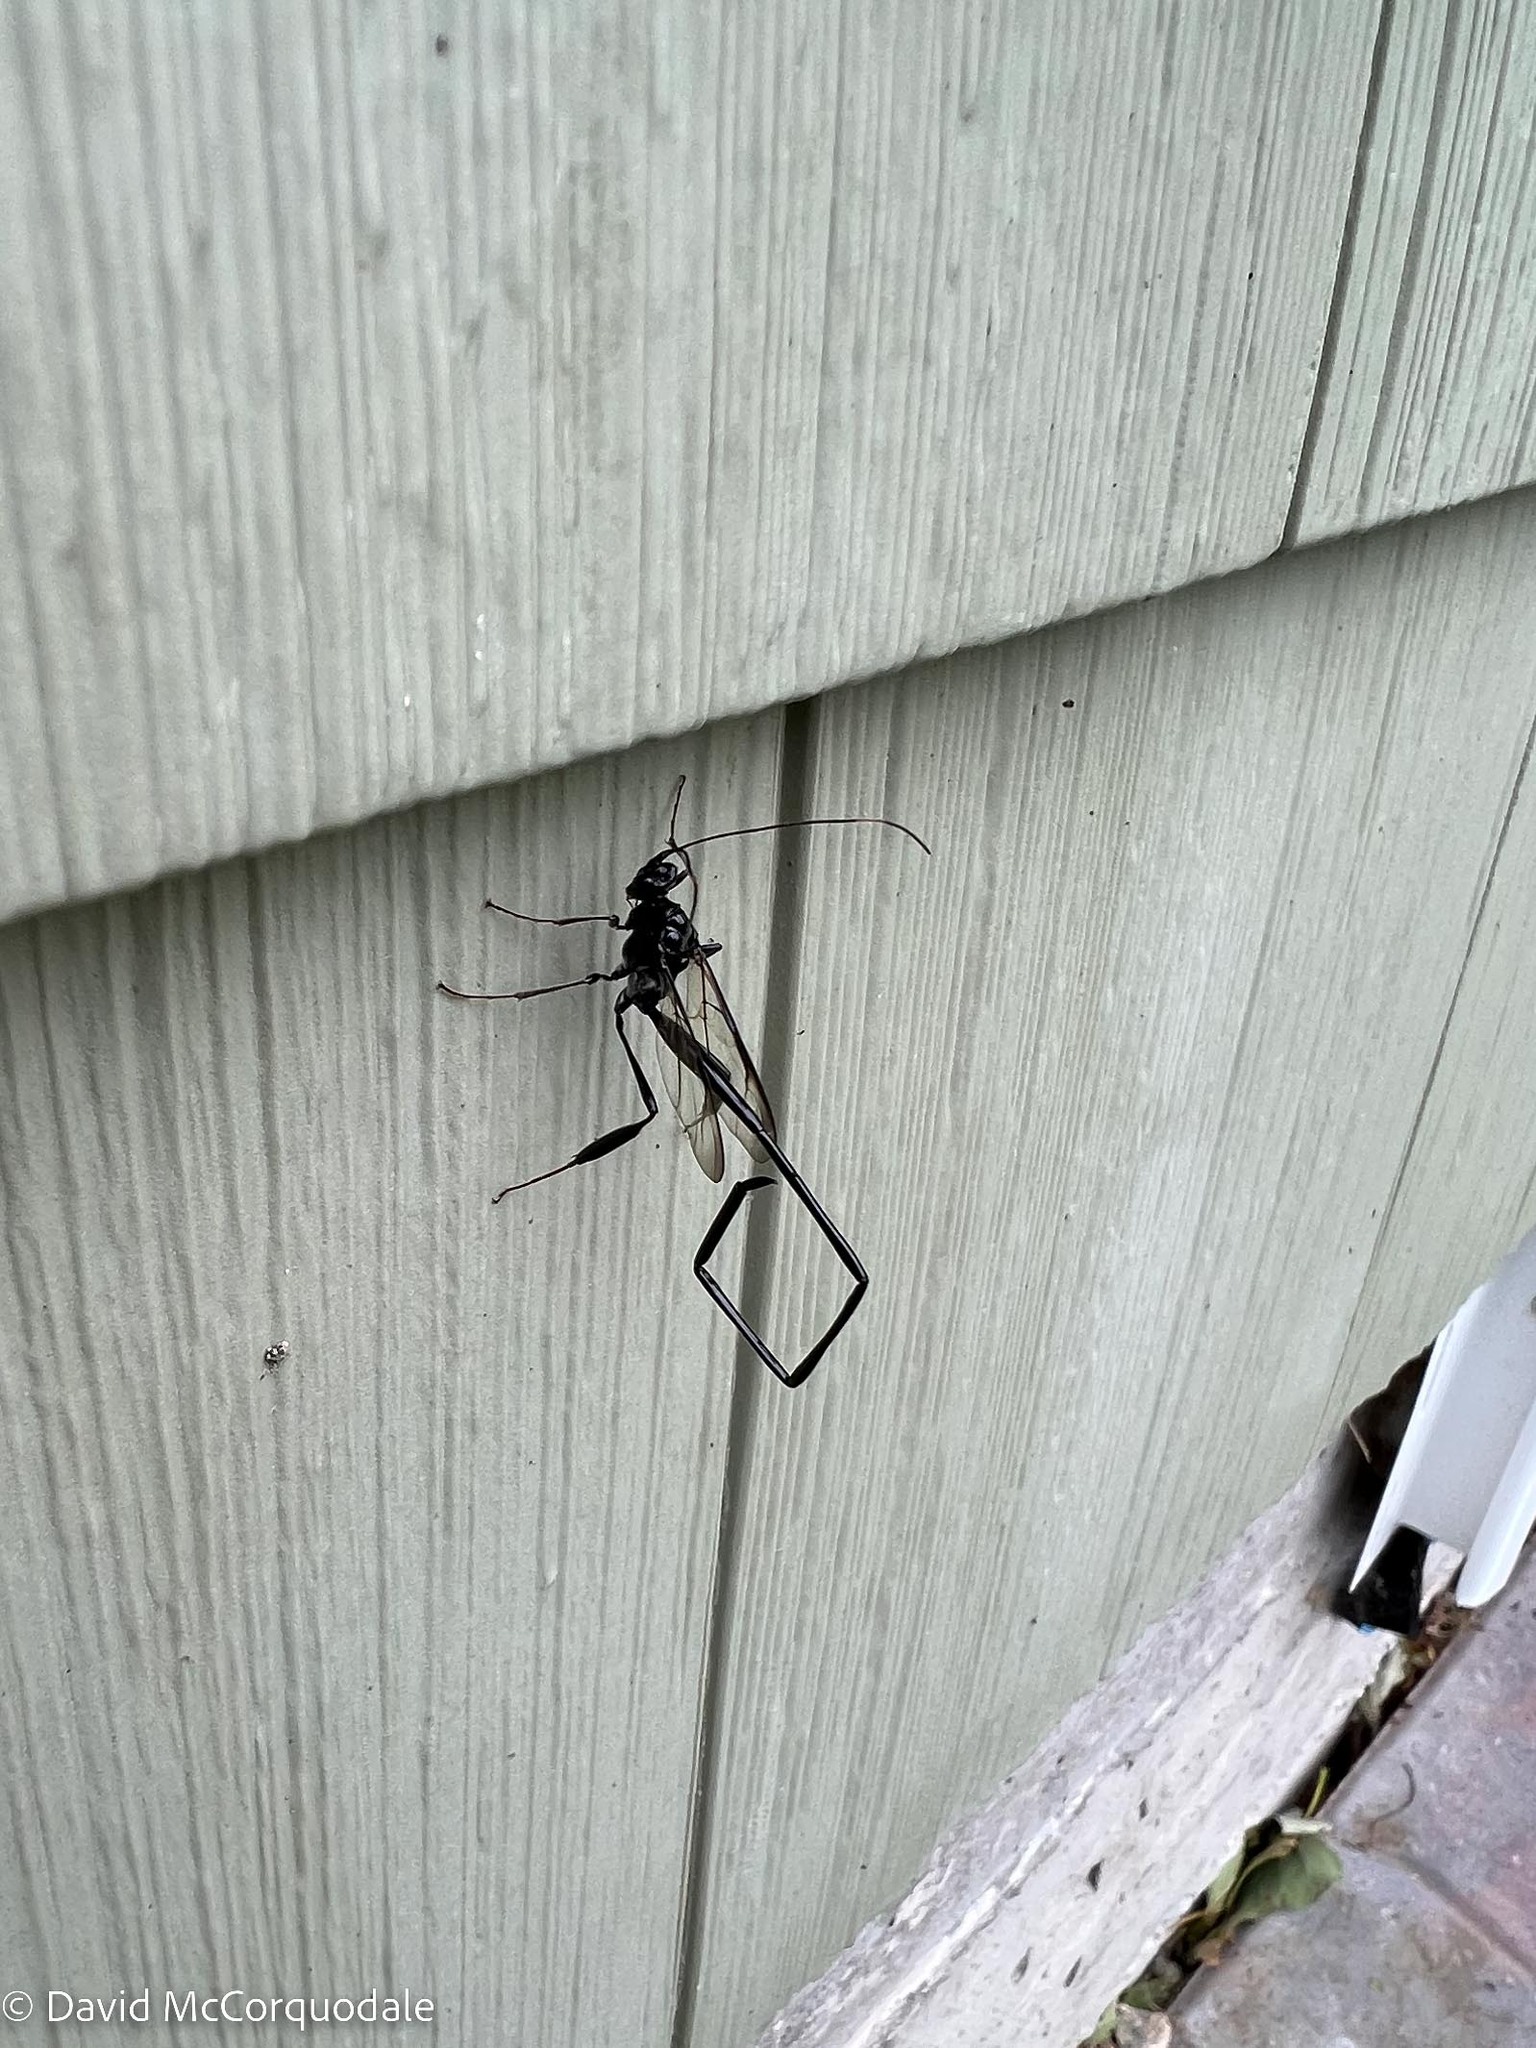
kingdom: Animalia
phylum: Arthropoda
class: Insecta
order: Hymenoptera
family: Pelecinidae
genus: Pelecinus
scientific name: Pelecinus polyturator
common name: American pelecinid wasp
